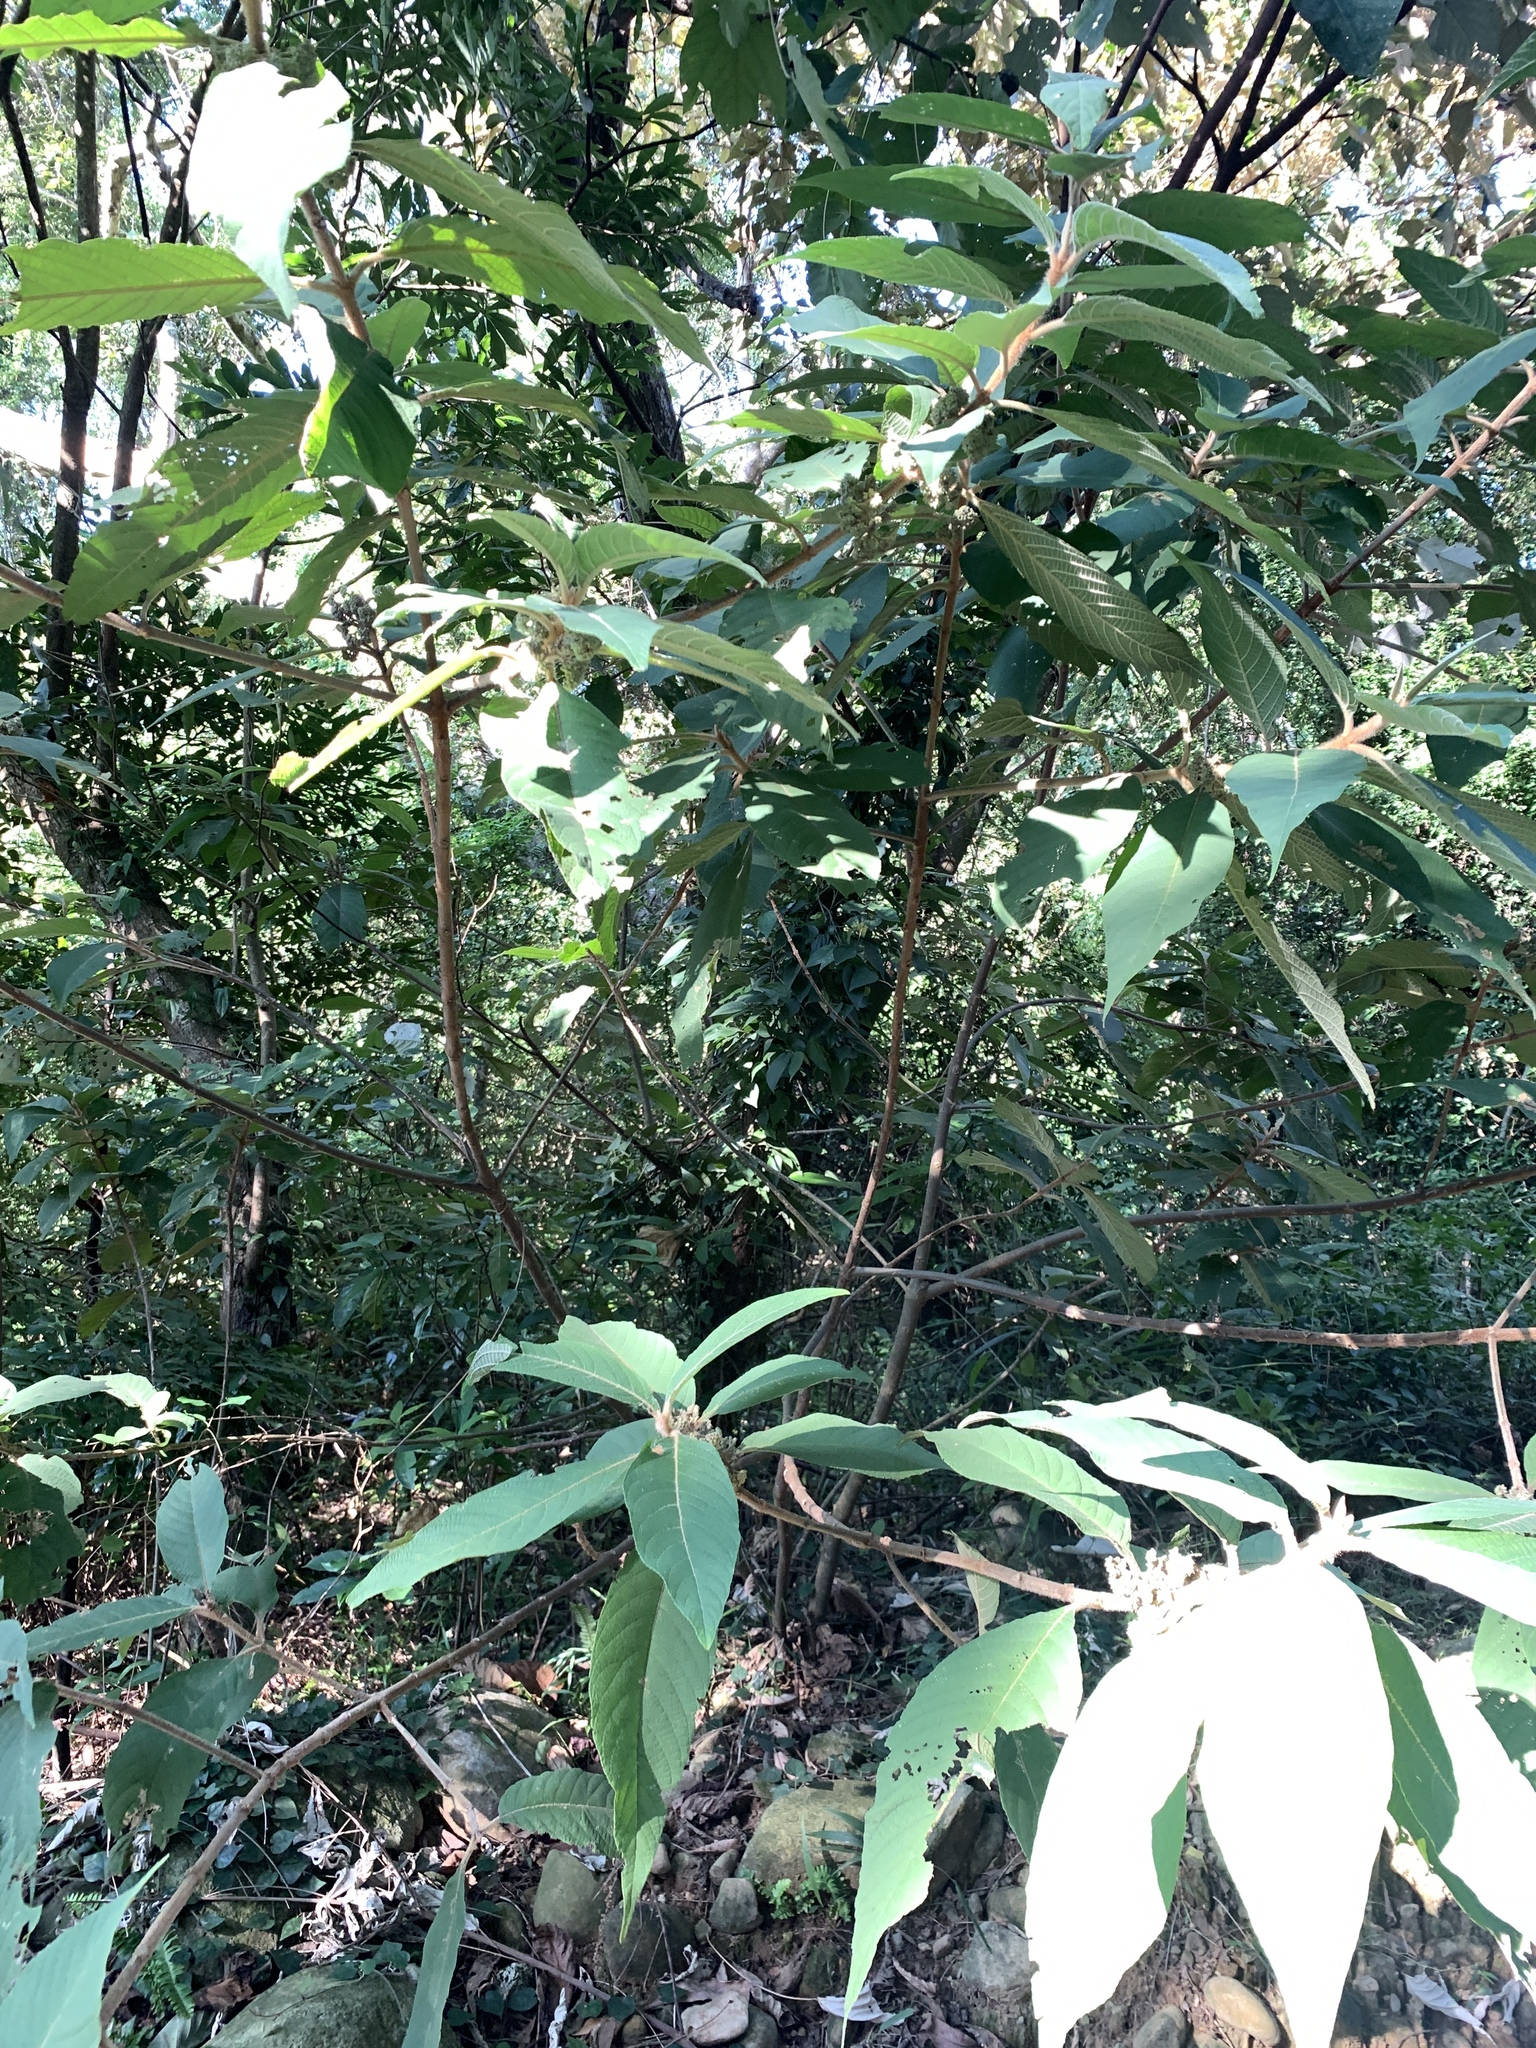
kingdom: Plantae
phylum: Tracheophyta
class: Magnoliopsida
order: Lamiales
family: Lamiaceae
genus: Callicarpa
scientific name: Callicarpa kochiana
